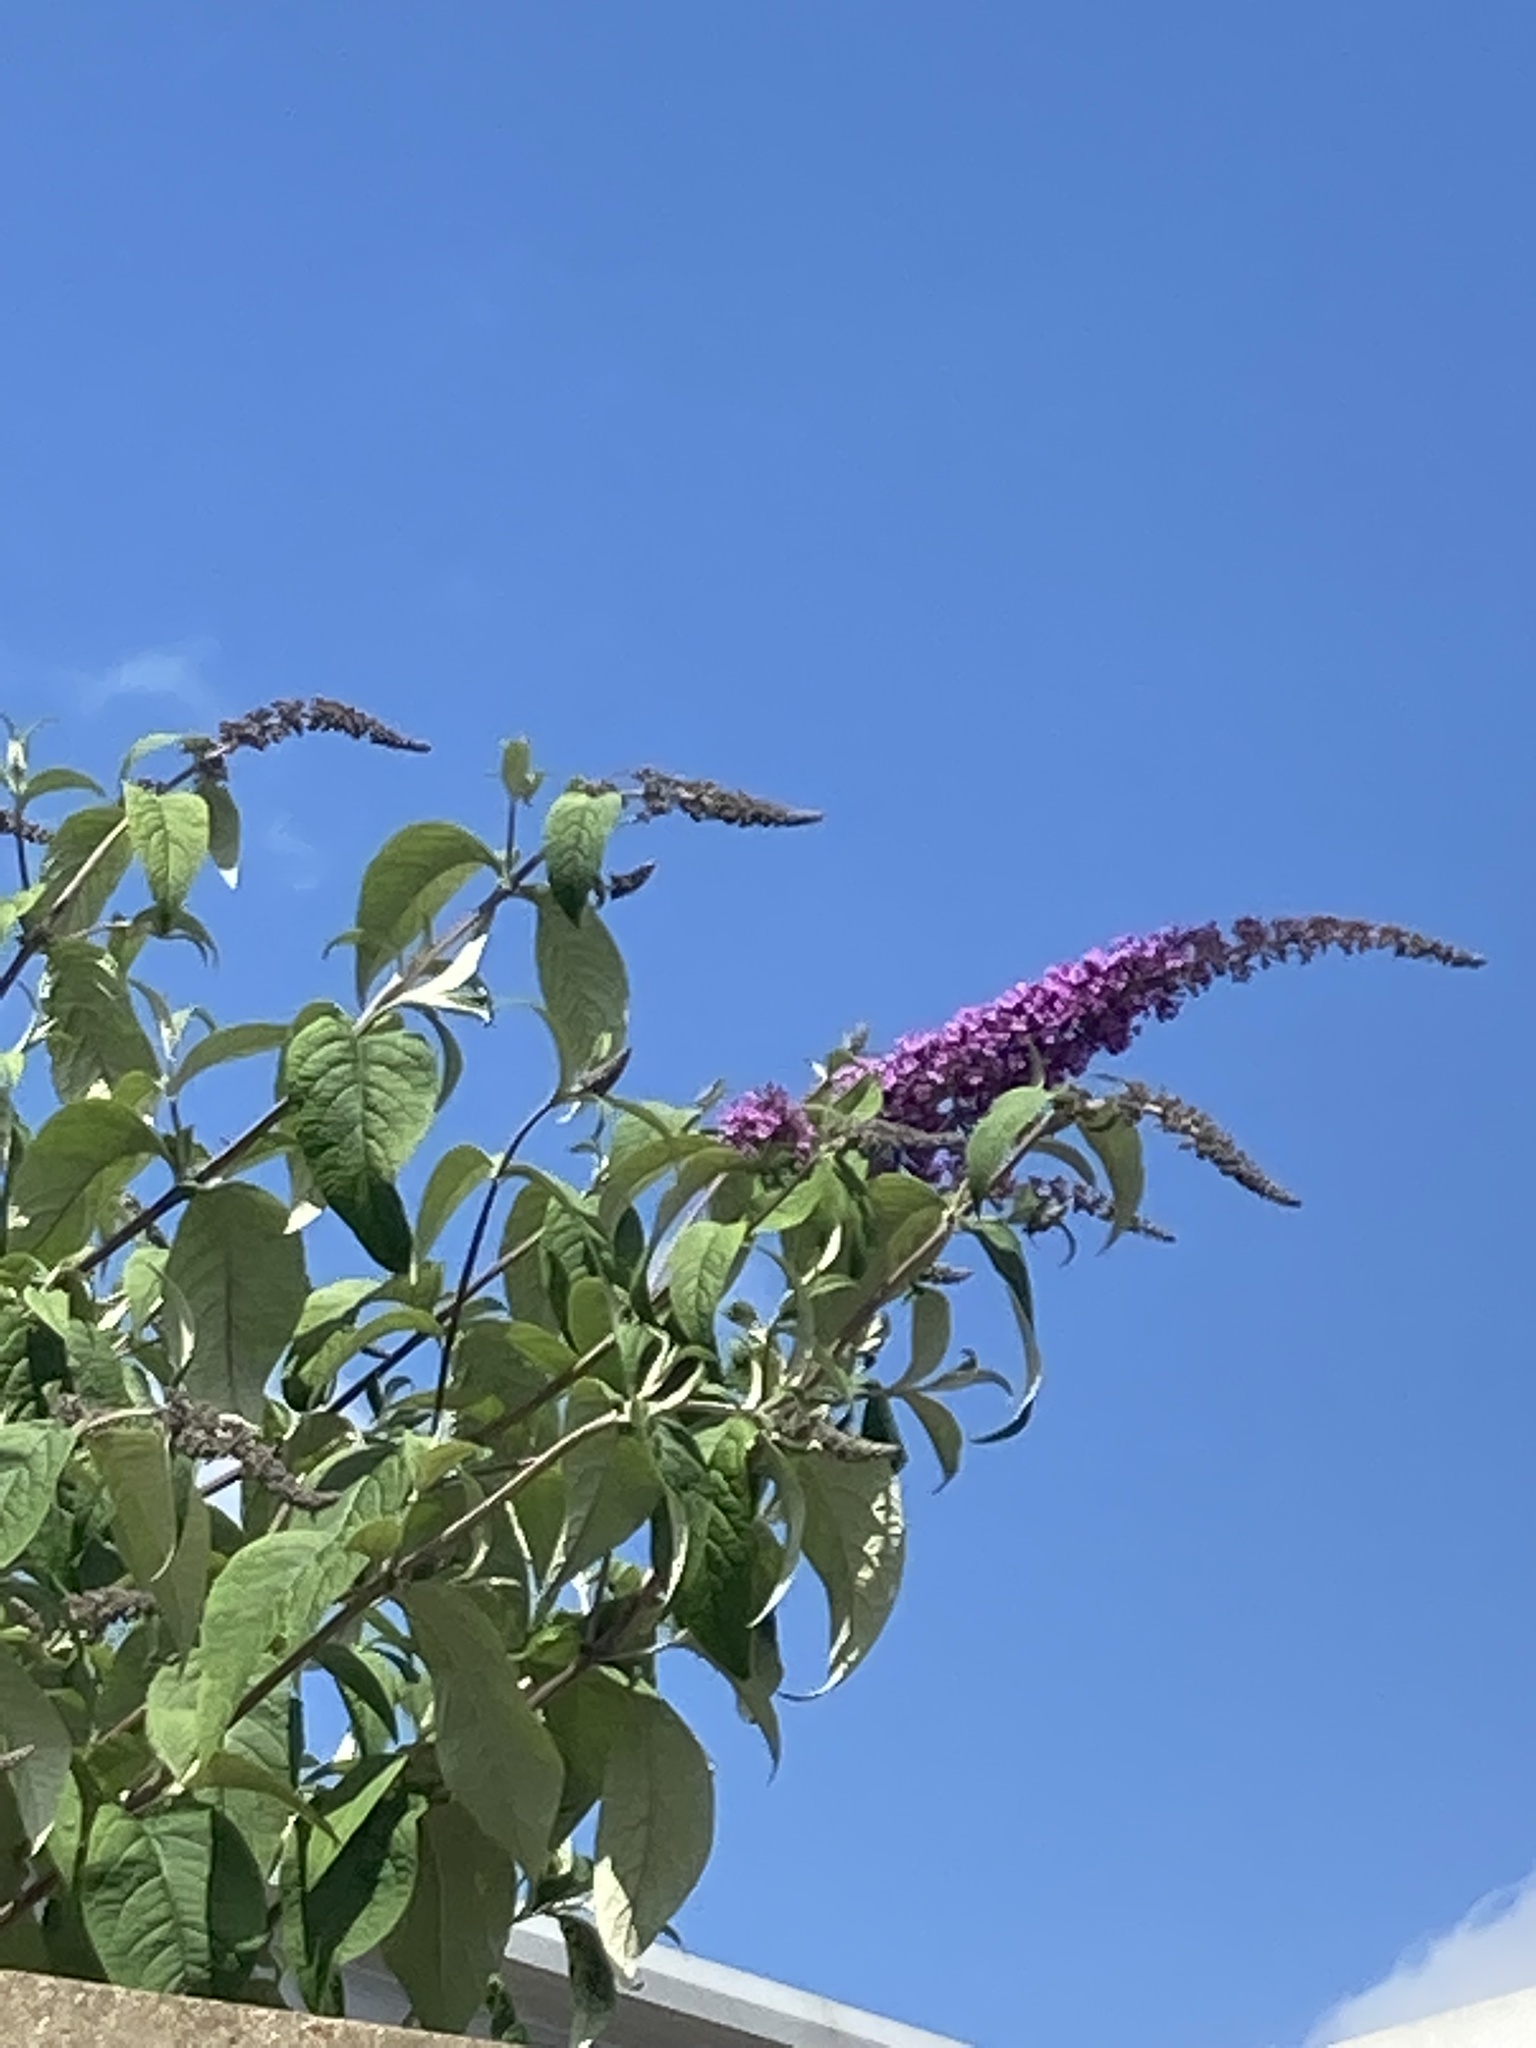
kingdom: Plantae
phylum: Tracheophyta
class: Magnoliopsida
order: Lamiales
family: Scrophulariaceae
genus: Buddleja
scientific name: Buddleja davidii
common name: Butterfly-bush
